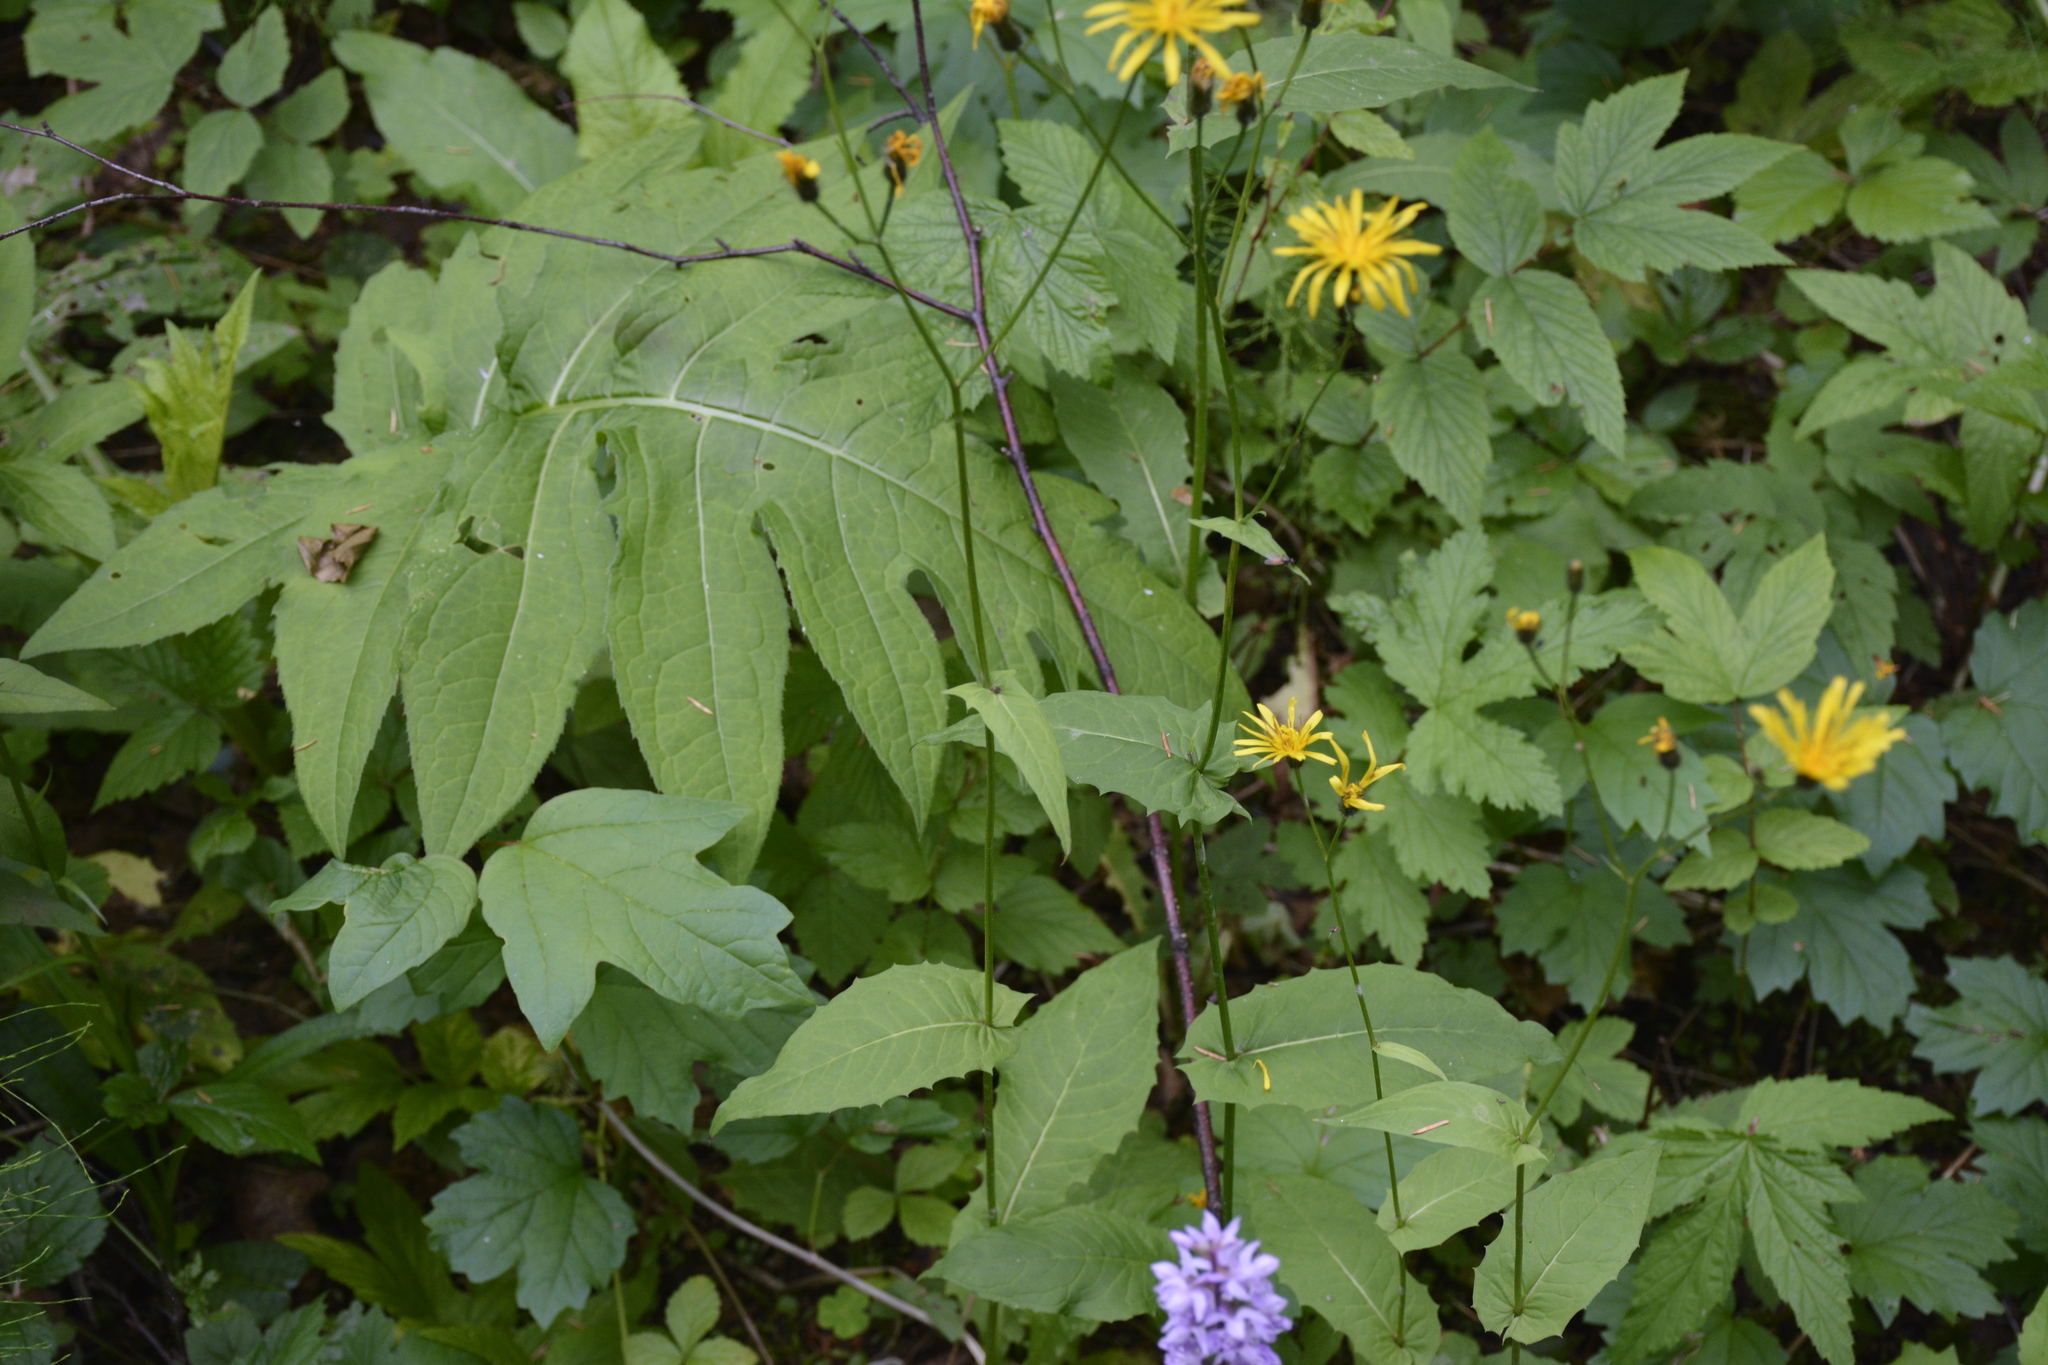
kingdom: Plantae
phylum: Tracheophyta
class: Magnoliopsida
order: Asterales
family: Asteraceae
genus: Crepis
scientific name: Crepis paludosa
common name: Marsh hawk's-beard
